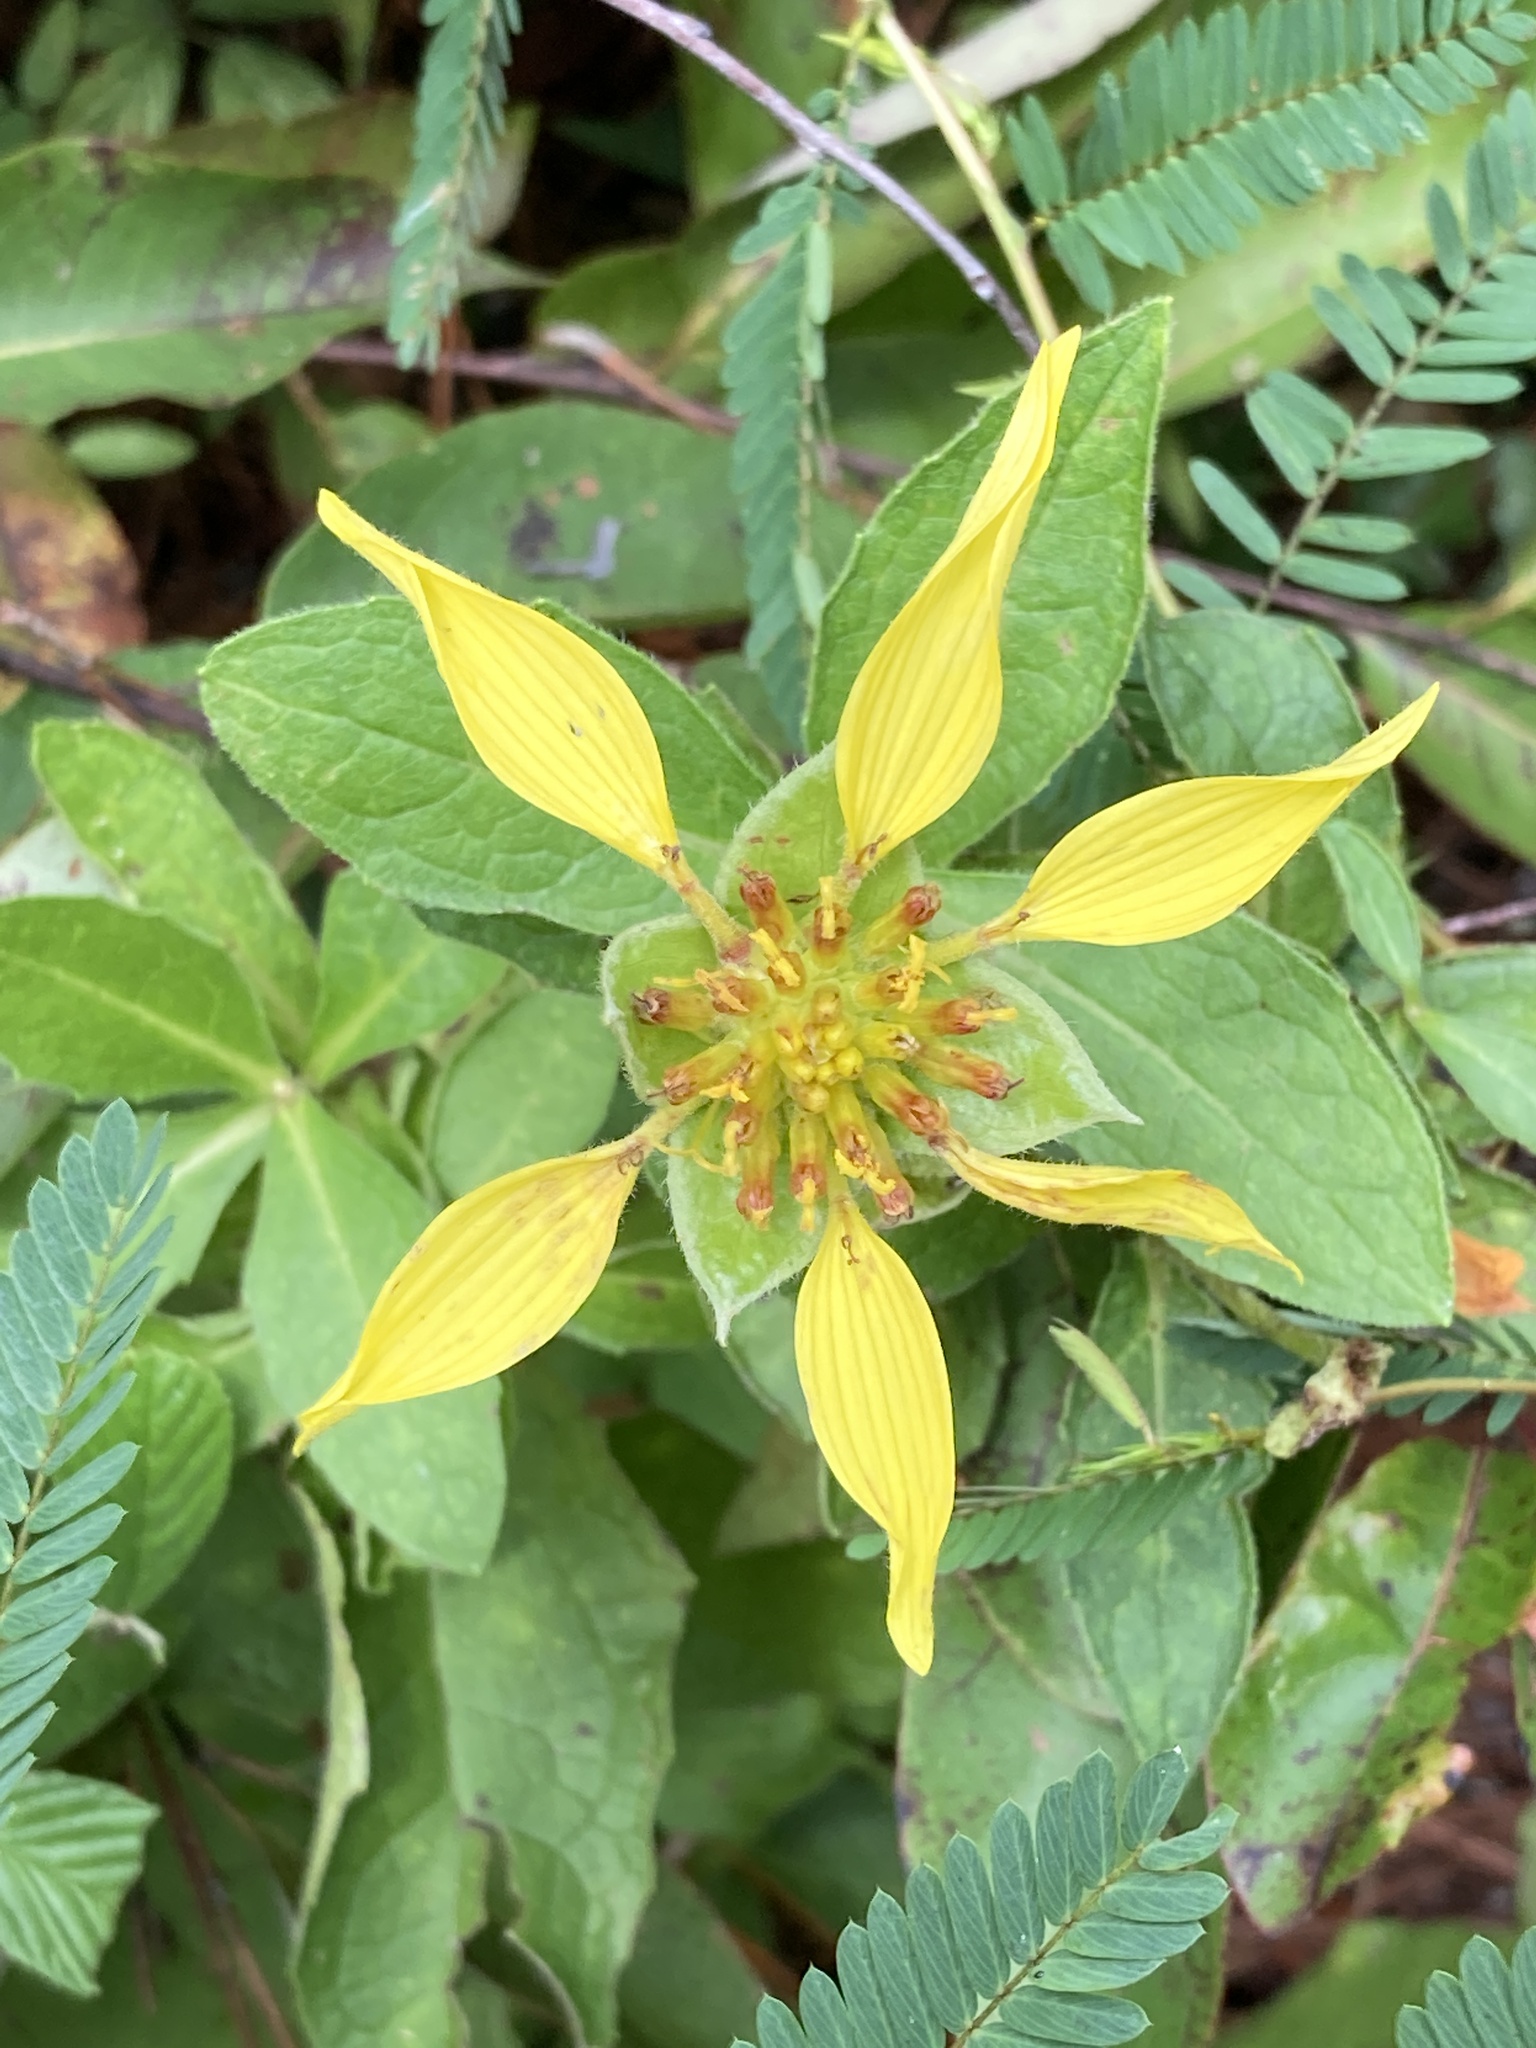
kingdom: Plantae
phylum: Tracheophyta
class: Magnoliopsida
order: Asterales
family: Asteraceae
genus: Tetragonotheca
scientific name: Tetragonotheca helianthoides
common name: Pineland-ginseng
